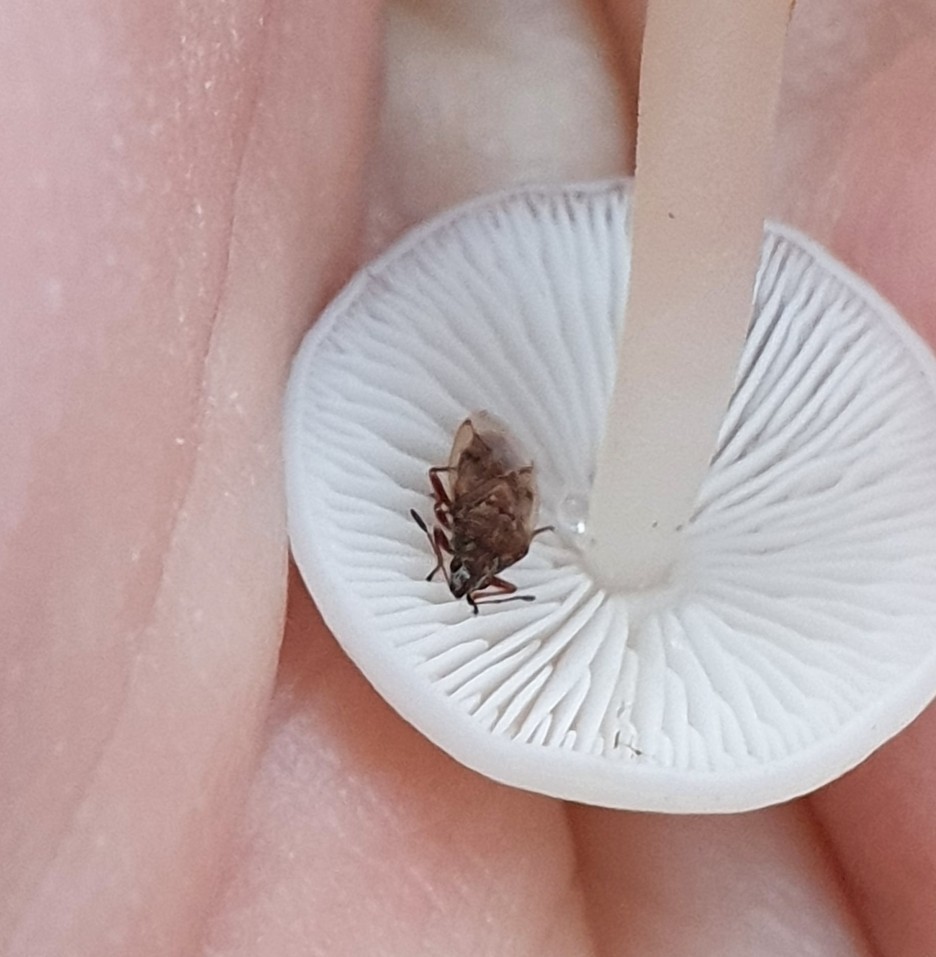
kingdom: Animalia
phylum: Arthropoda
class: Insecta
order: Hemiptera
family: Lygaeidae
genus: Kleidocerys
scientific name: Kleidocerys resedae
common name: Birch catkin bug
